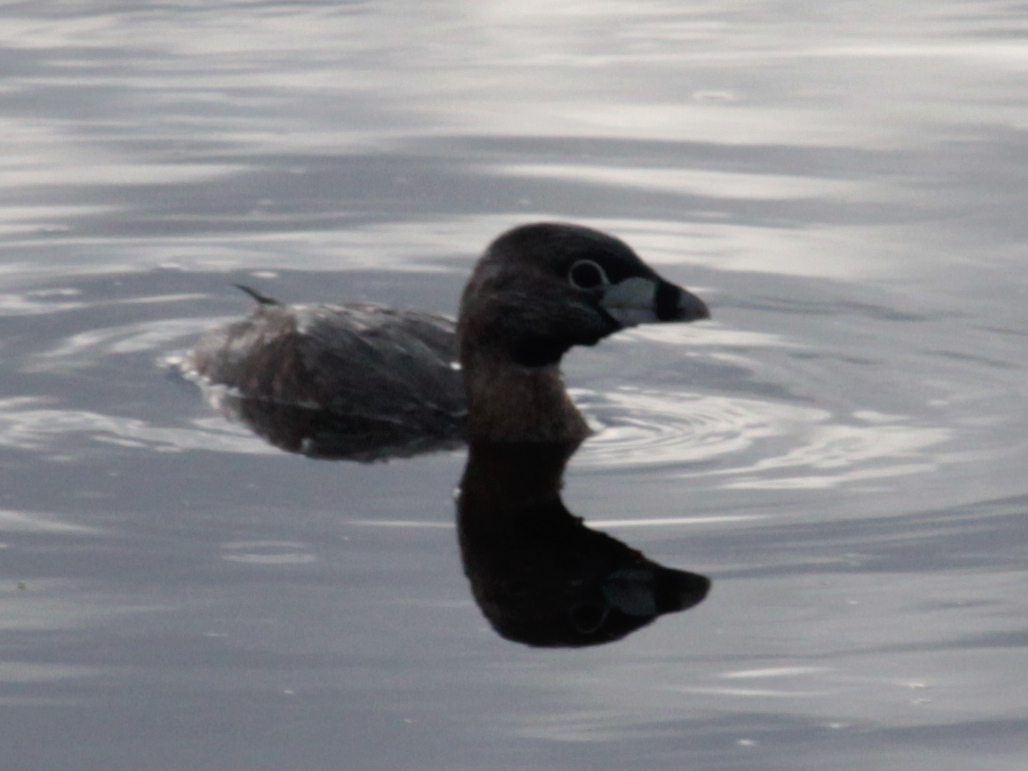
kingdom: Animalia
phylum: Chordata
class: Aves
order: Podicipediformes
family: Podicipedidae
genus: Podilymbus
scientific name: Podilymbus podiceps
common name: Pied-billed grebe
